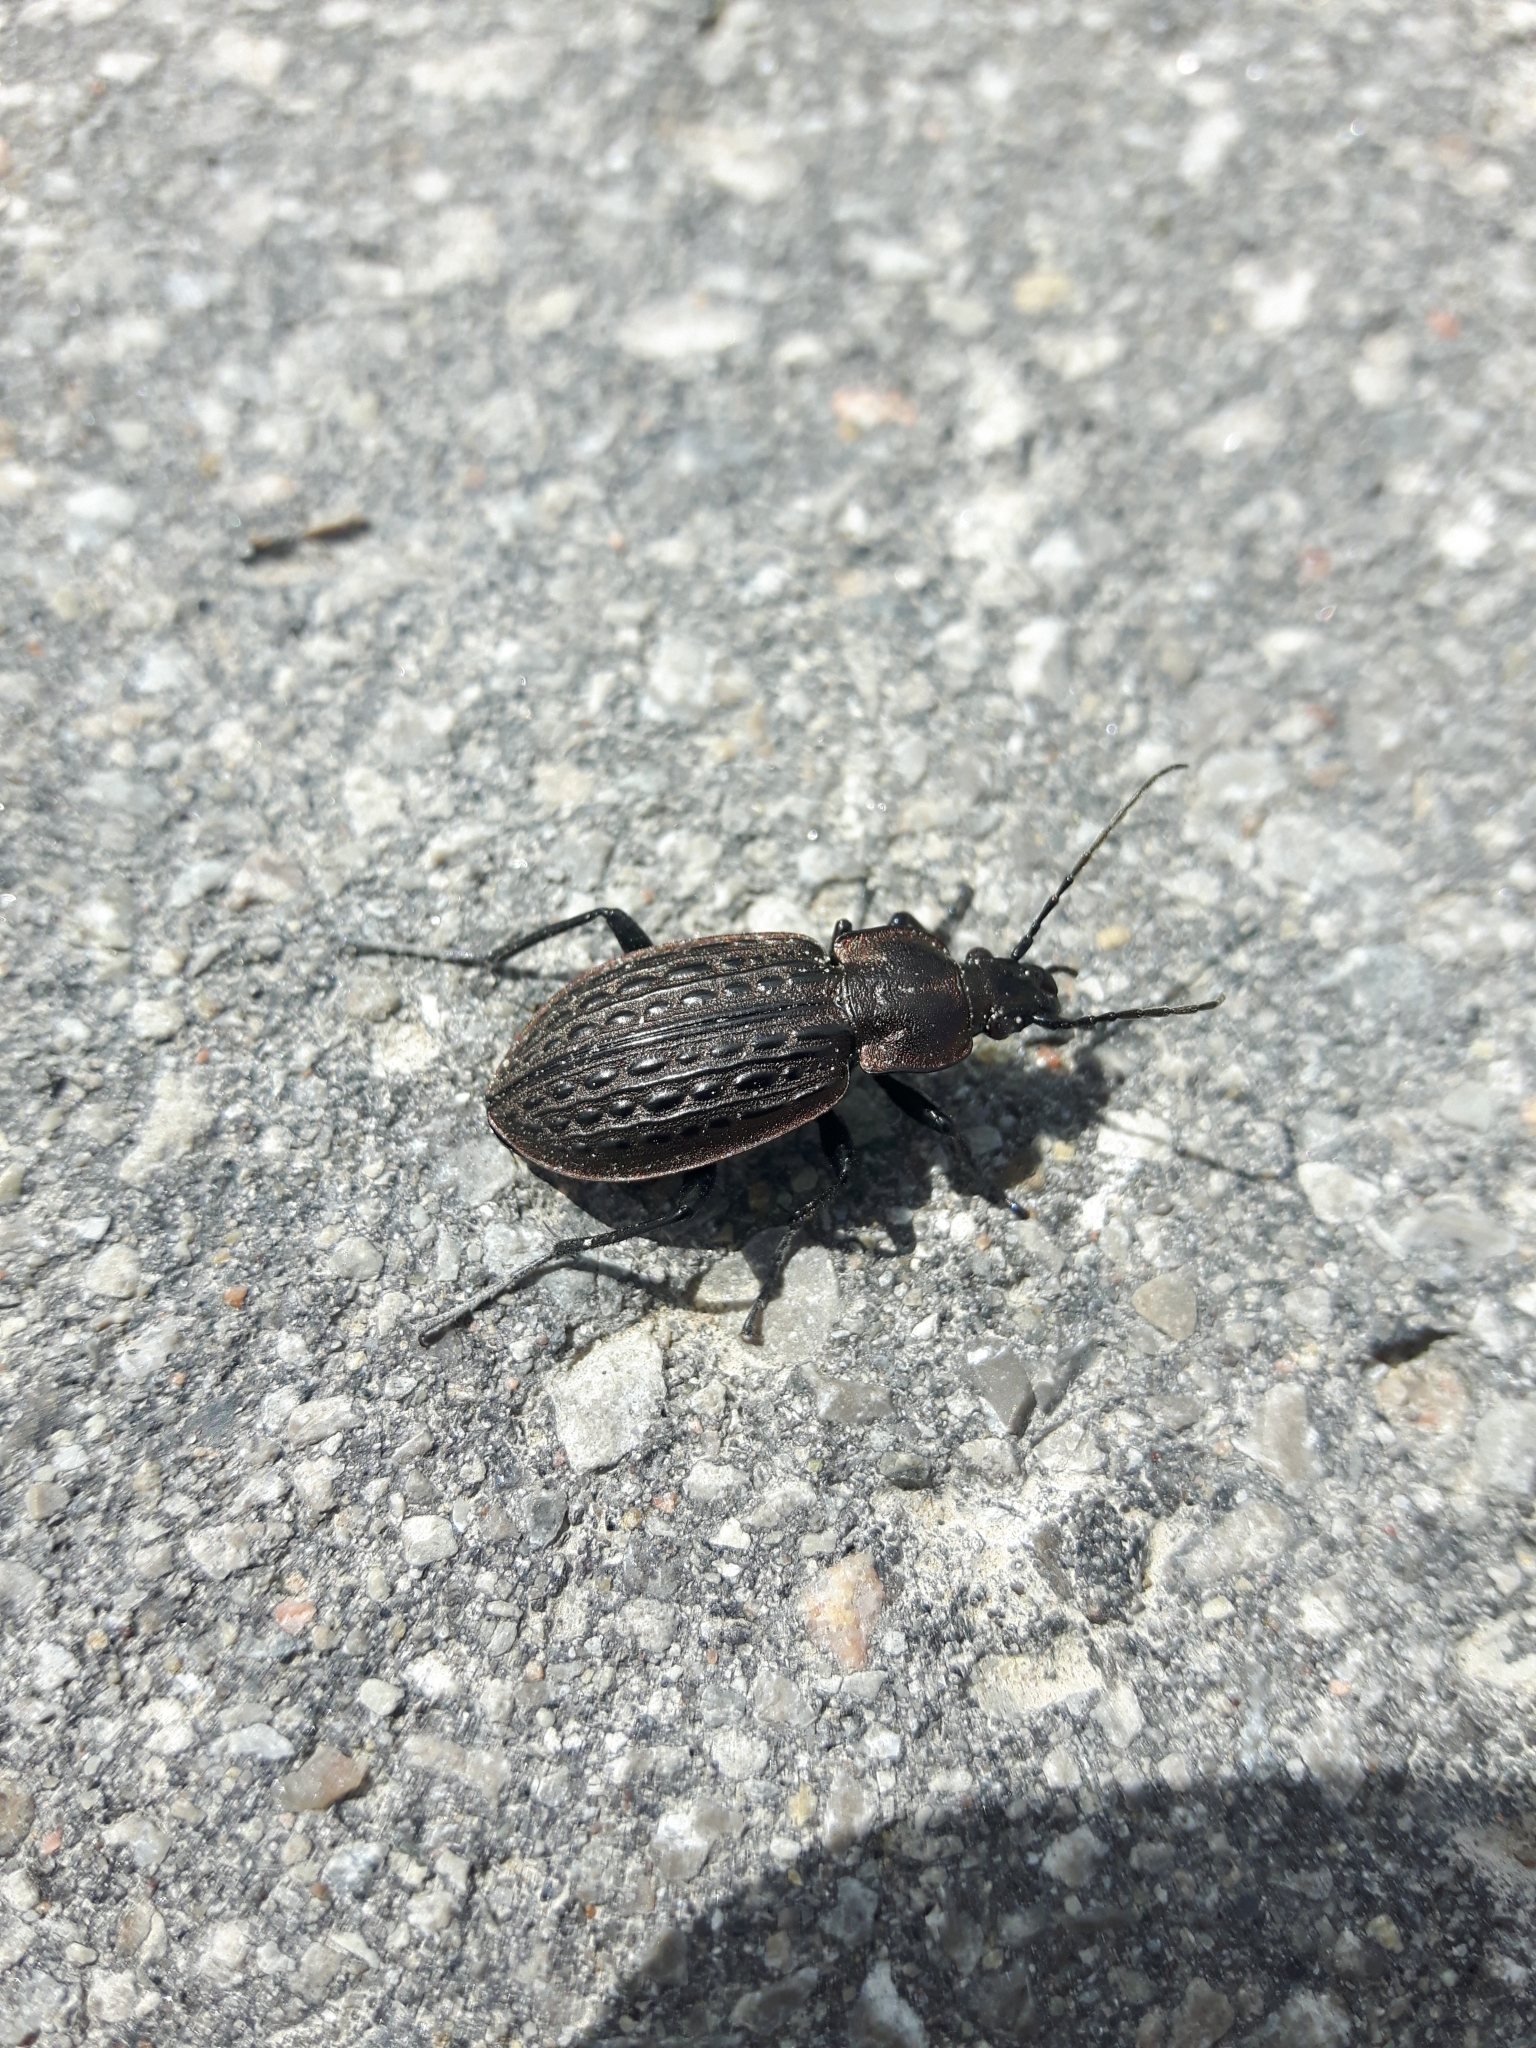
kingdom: Animalia
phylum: Arthropoda
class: Insecta
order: Coleoptera
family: Carabidae
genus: Carabus
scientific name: Carabus maeander
